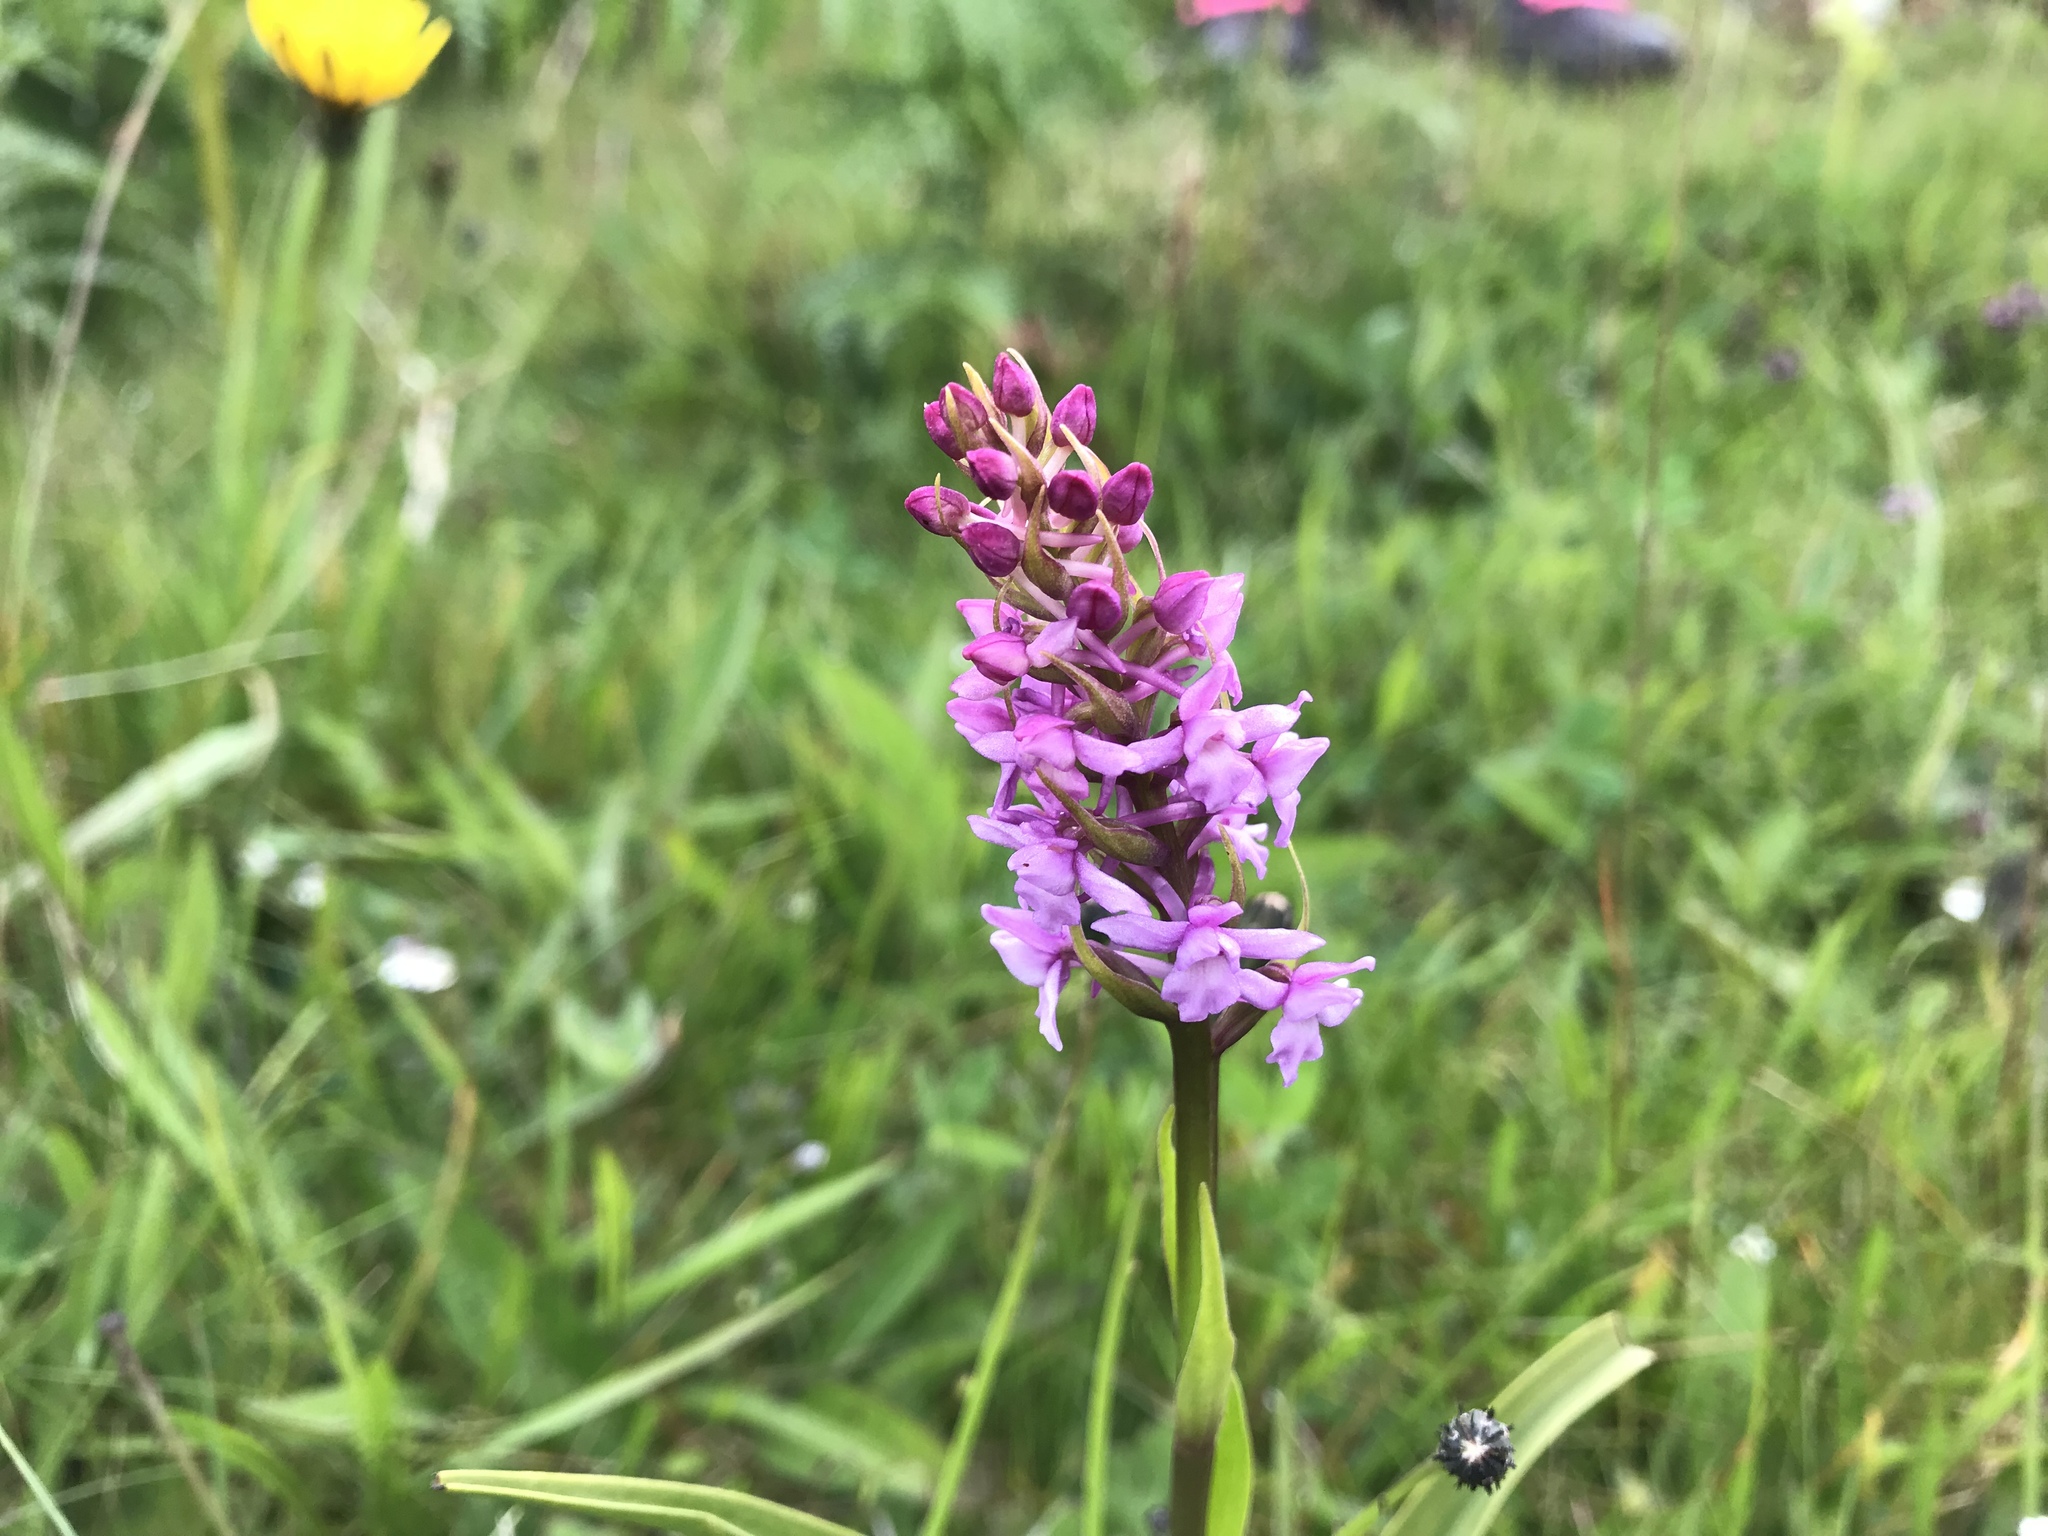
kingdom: Plantae
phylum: Tracheophyta
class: Liliopsida
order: Asparagales
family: Orchidaceae
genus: Gymnadenia
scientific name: Gymnadenia conopsea
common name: Fragrant orchid
